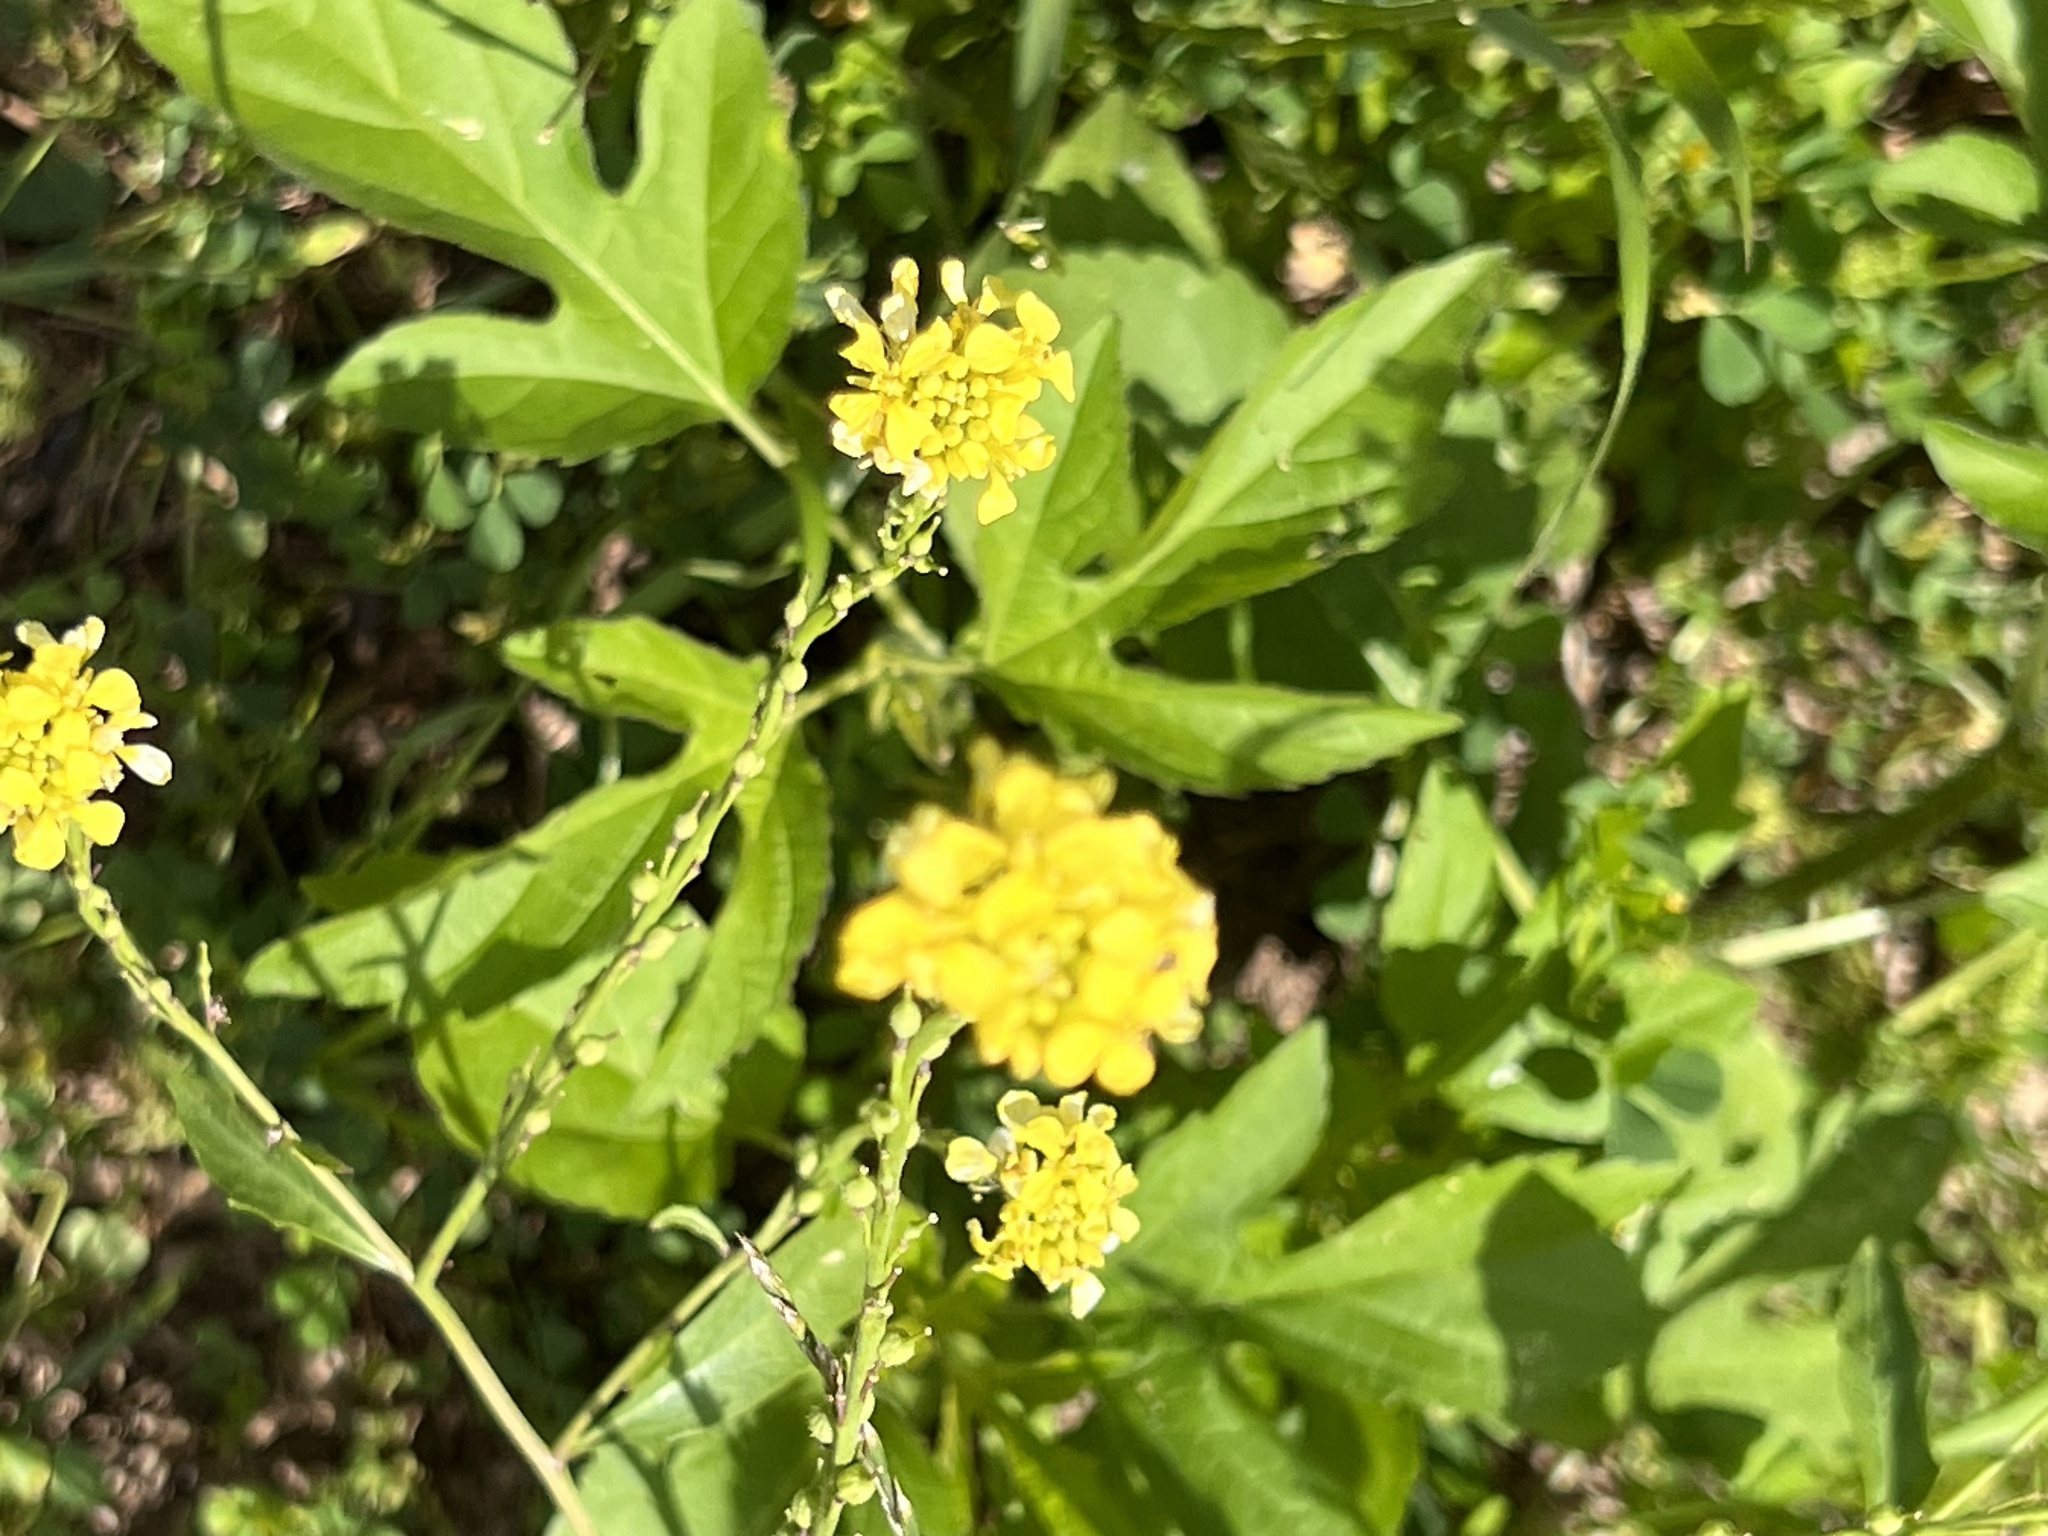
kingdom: Plantae
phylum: Tracheophyta
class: Magnoliopsida
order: Brassicales
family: Brassicaceae
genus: Rapistrum
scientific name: Rapistrum rugosum
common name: Annual bastardcabbage
